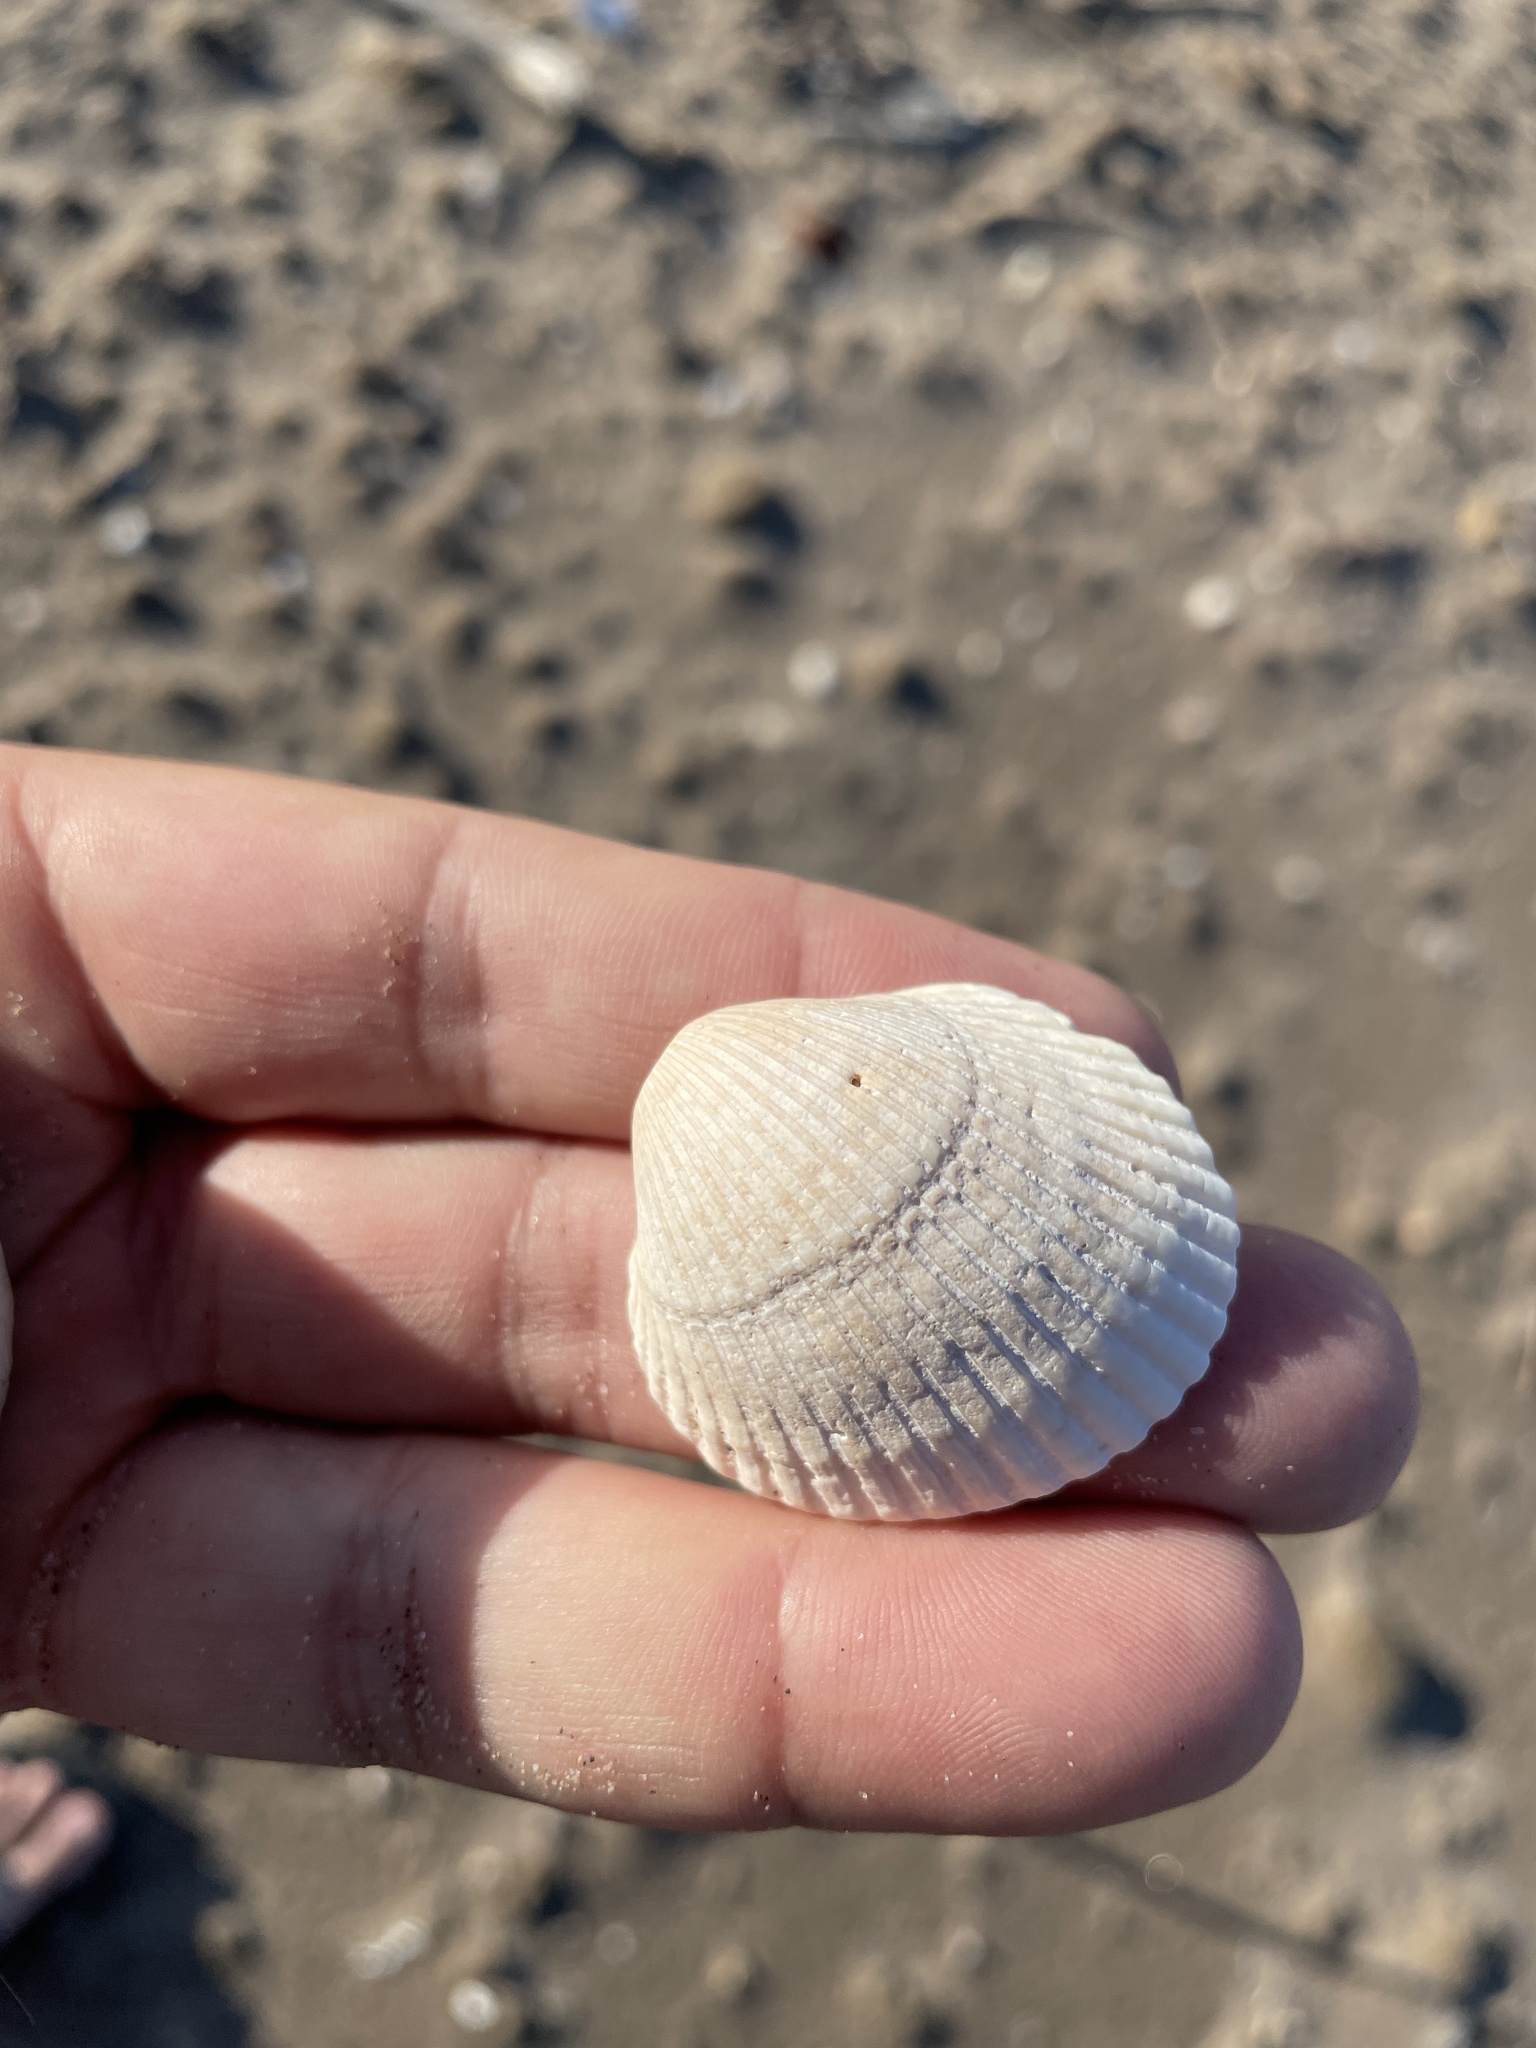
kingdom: Animalia
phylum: Mollusca
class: Bivalvia
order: Arcida
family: Arcidae
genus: Lunarca
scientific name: Lunarca ovalis
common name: Blood ark
